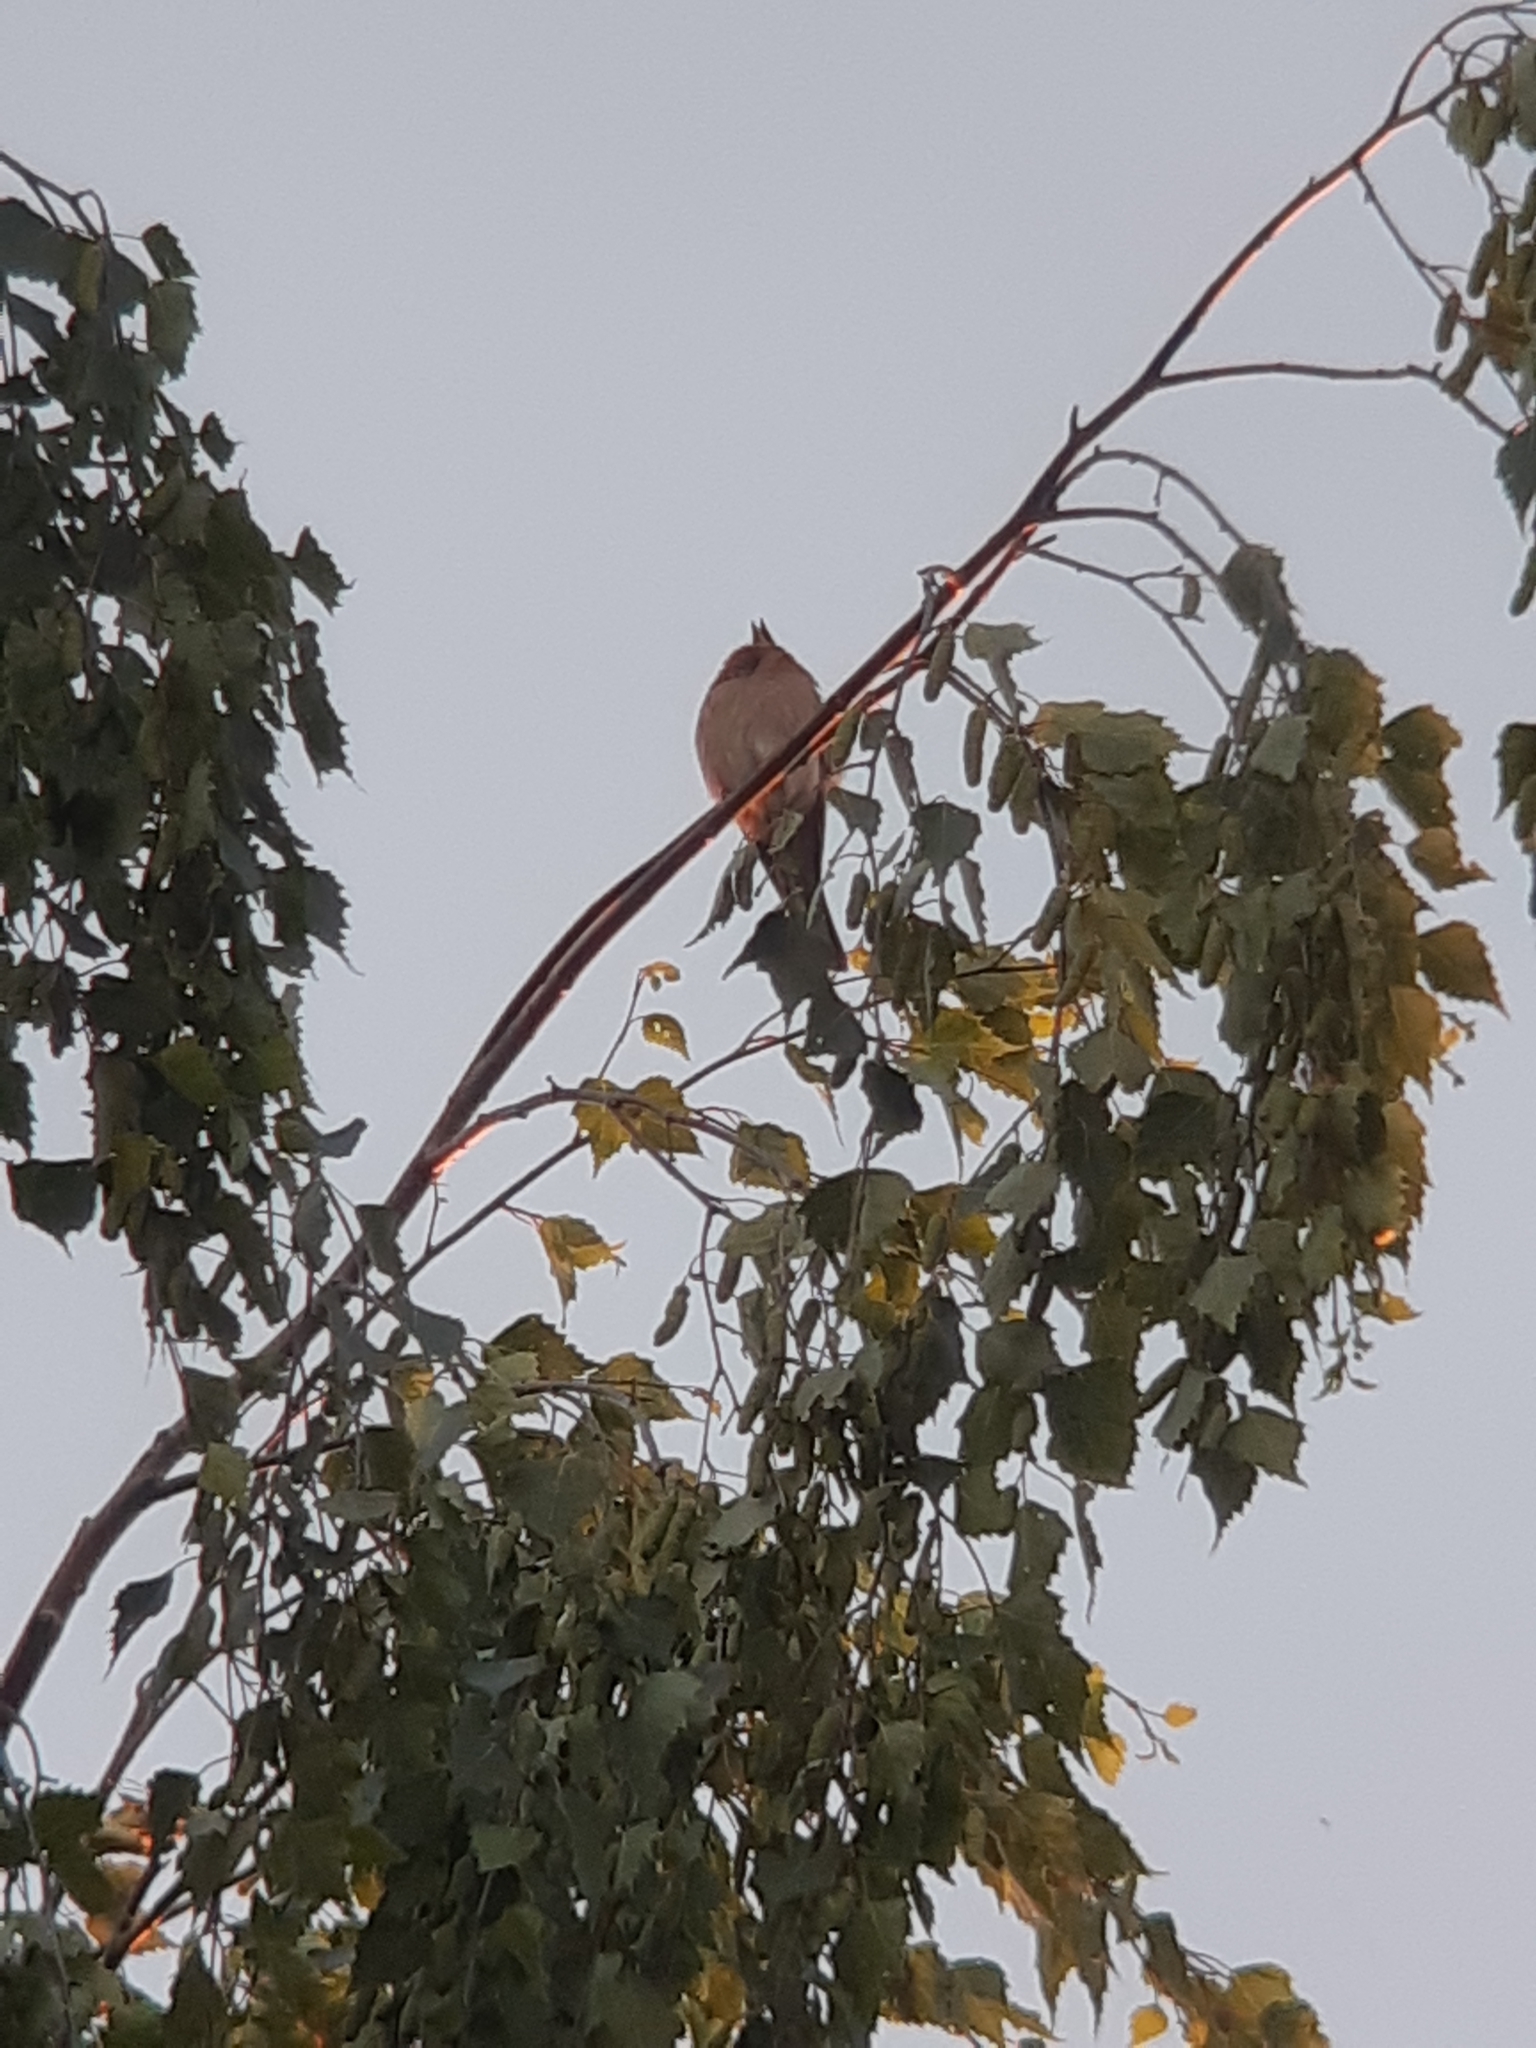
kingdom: Animalia
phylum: Chordata
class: Aves
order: Passeriformes
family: Fringillidae
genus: Fringilla
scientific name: Fringilla coelebs
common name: Common chaffinch
